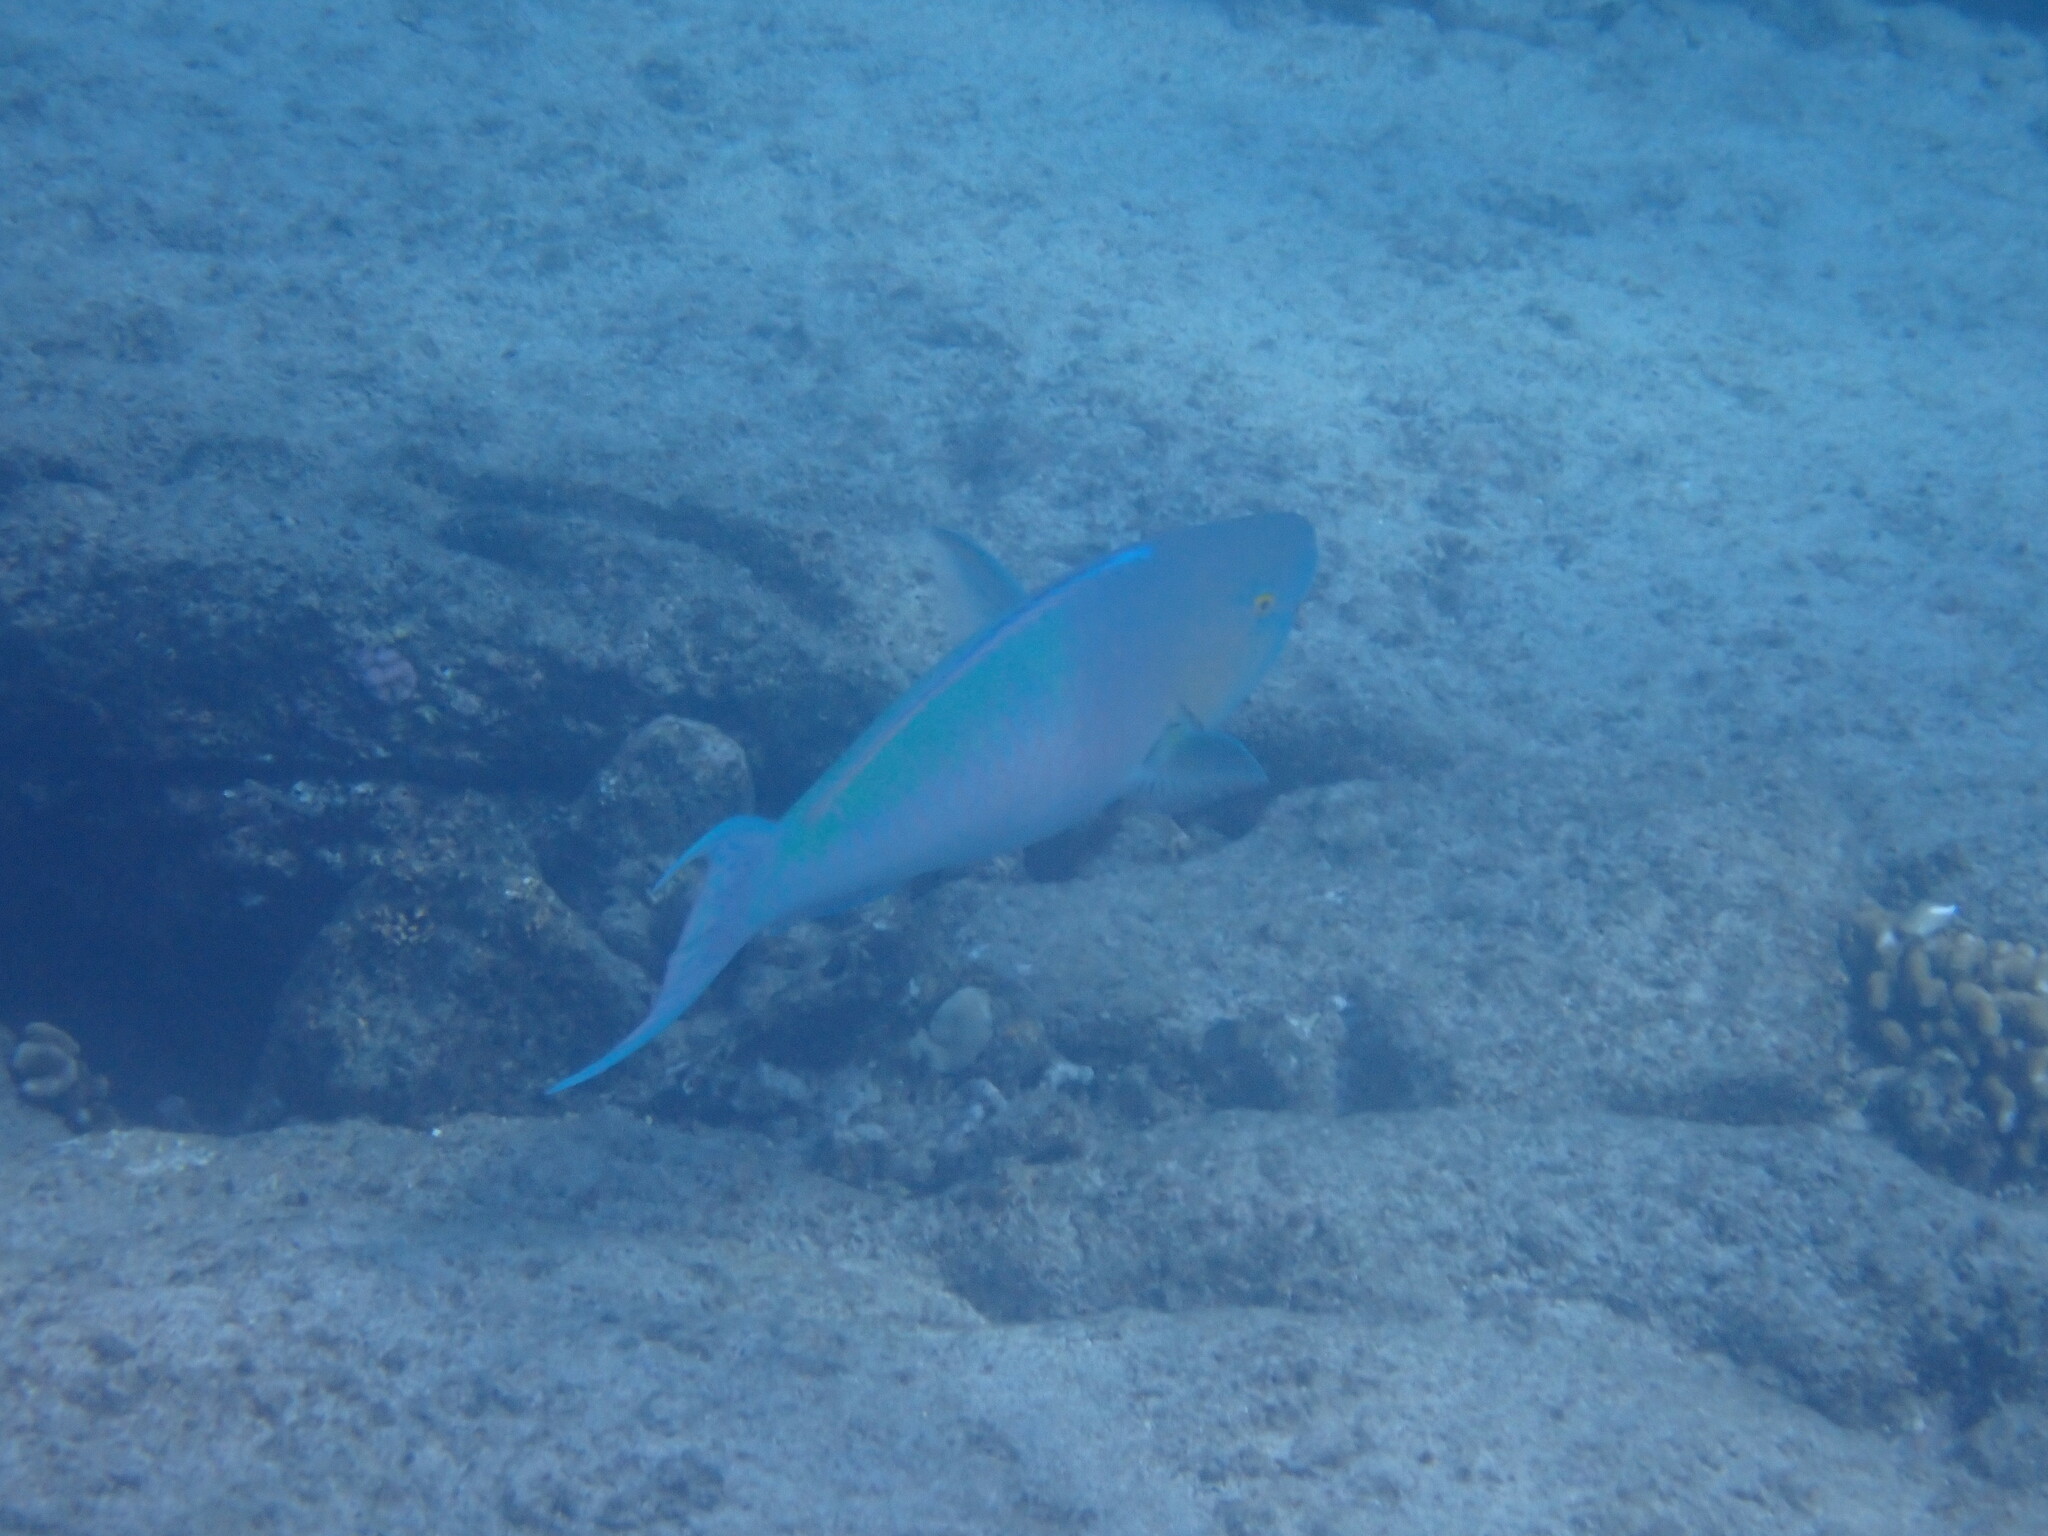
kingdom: Animalia
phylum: Chordata
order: Perciformes
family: Scaridae
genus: Scarus
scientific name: Scarus rubroviolaceus
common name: Ember parrotfish
